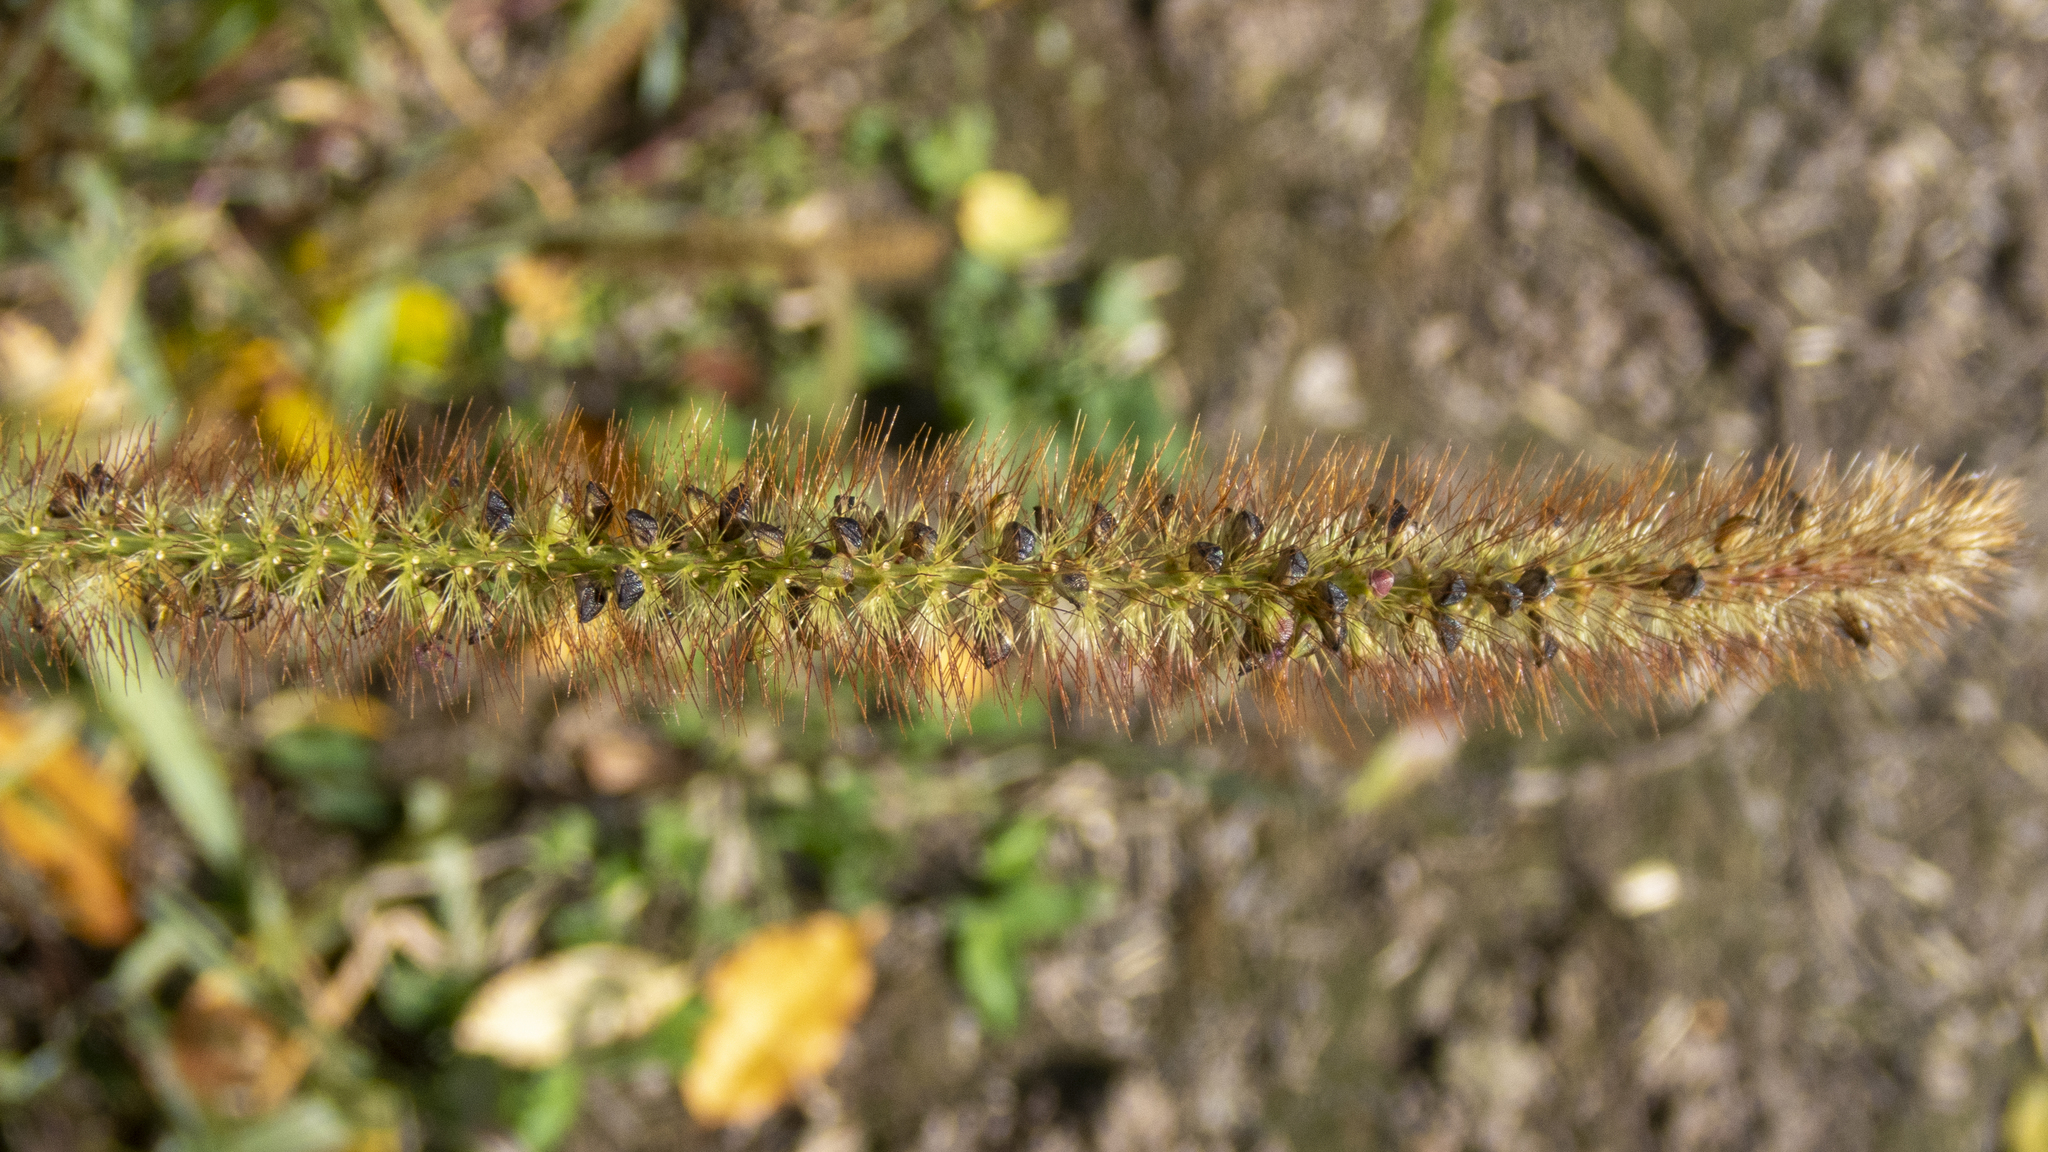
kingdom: Plantae
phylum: Tracheophyta
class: Liliopsida
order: Poales
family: Poaceae
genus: Setaria
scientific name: Setaria pumila
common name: Yellow bristle-grass
